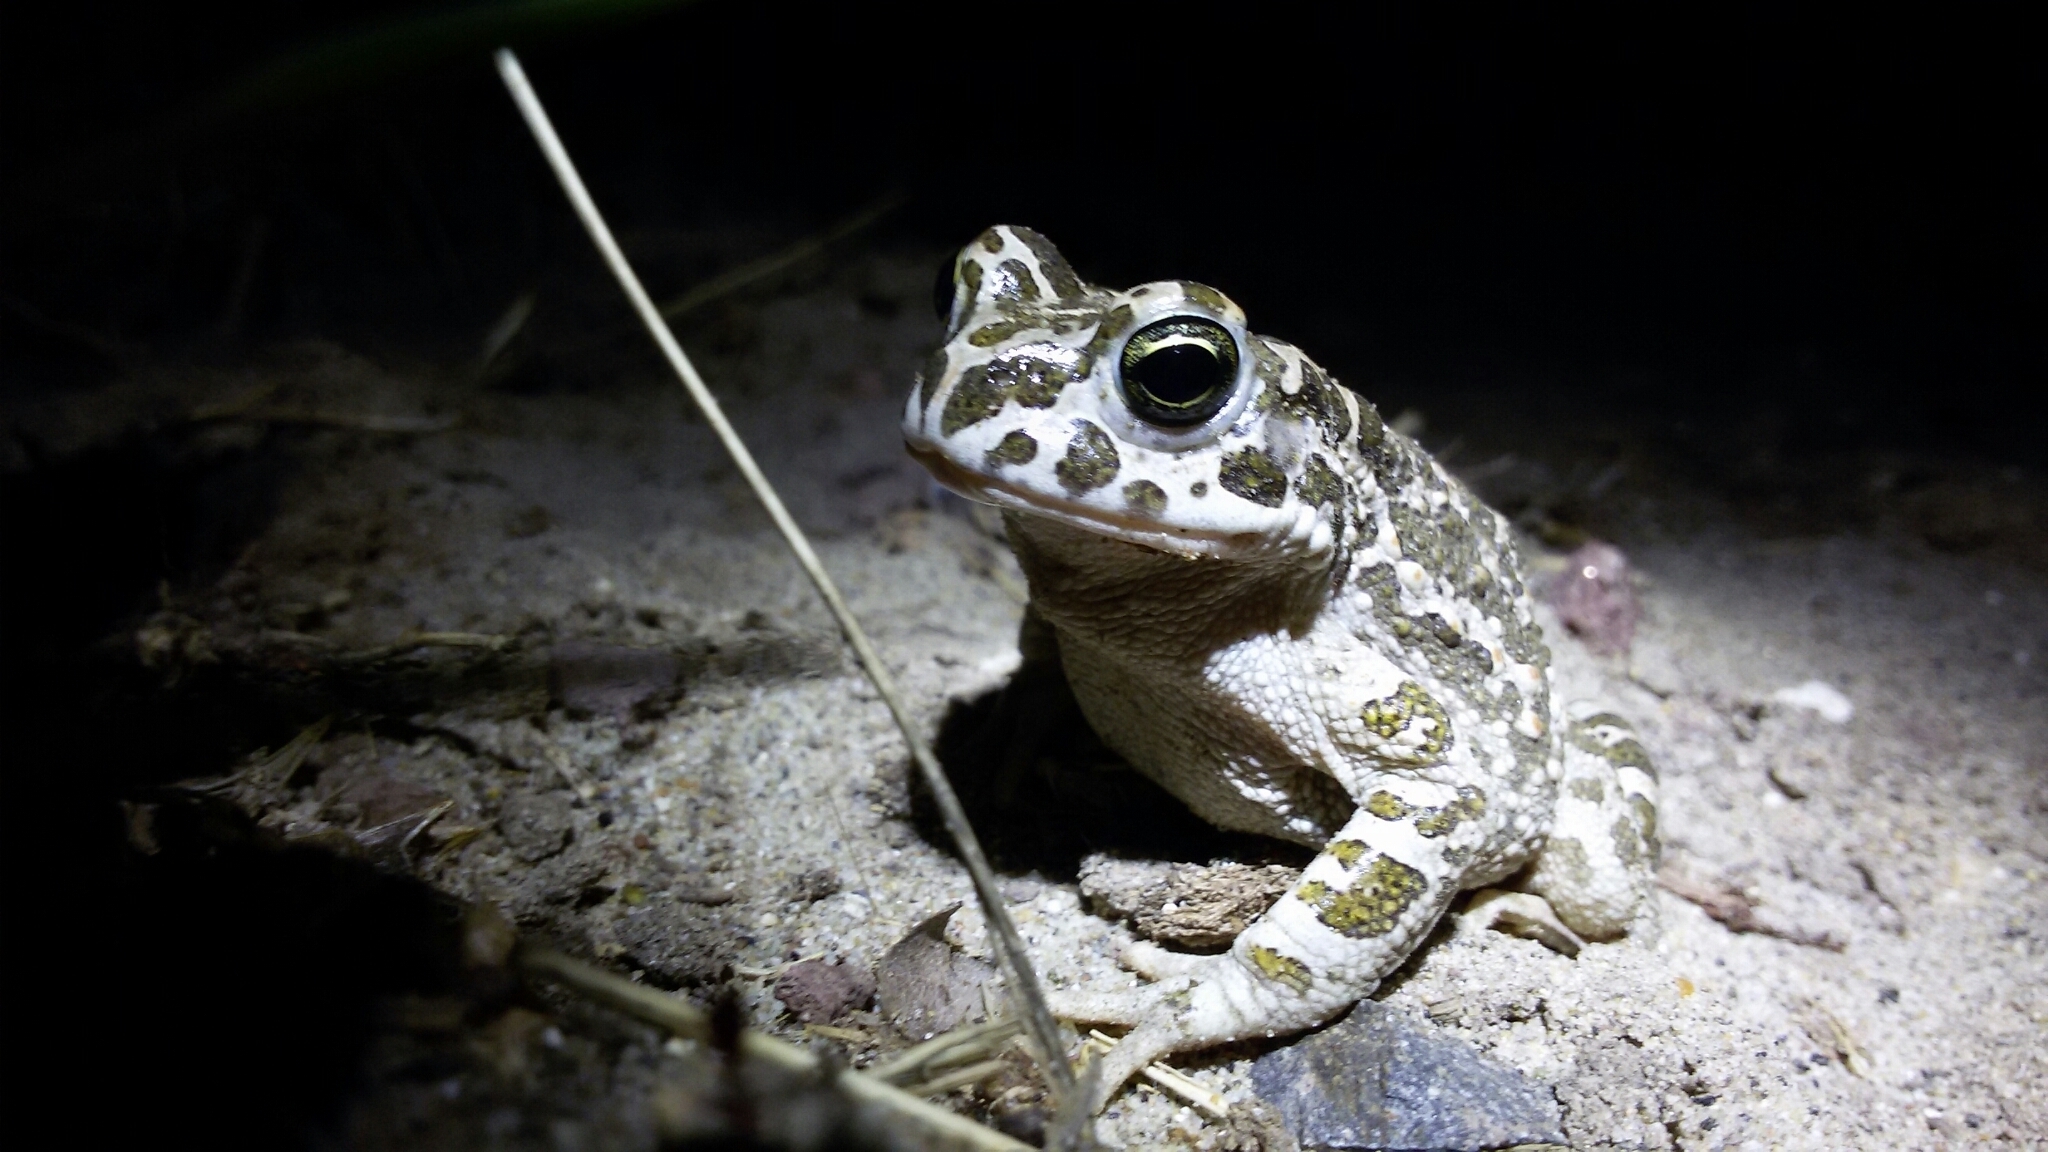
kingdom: Animalia
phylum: Chordata
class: Amphibia
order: Anura
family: Bufonidae
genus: Bufotes
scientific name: Bufotes viridis
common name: European green toad
